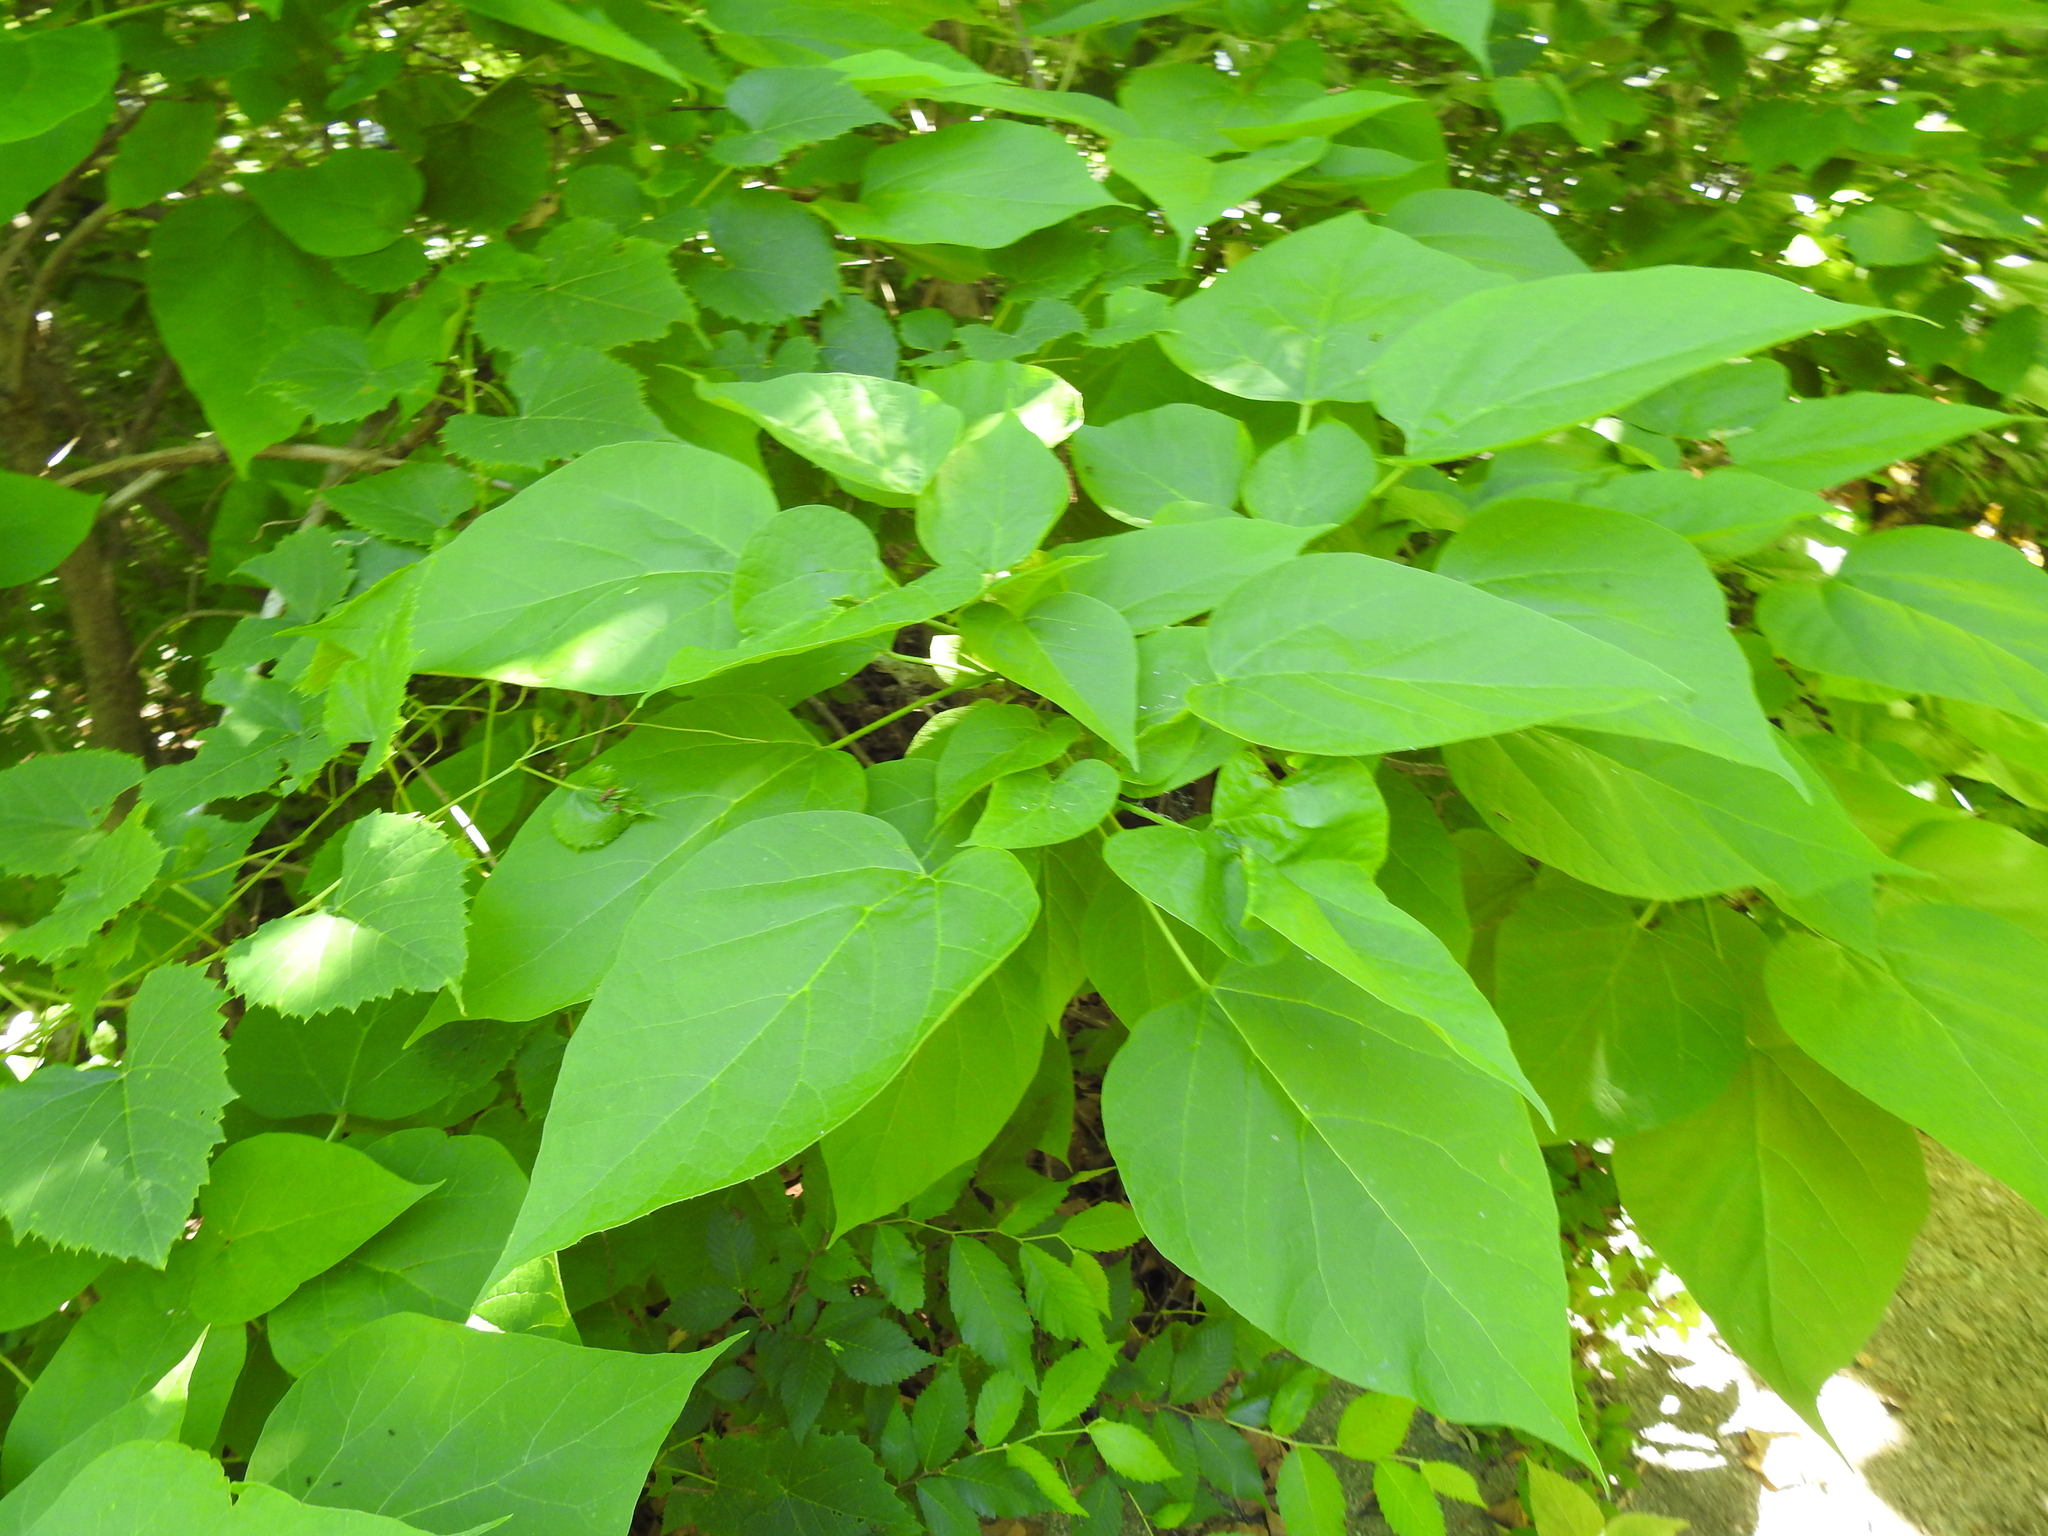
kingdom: Plantae
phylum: Tracheophyta
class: Magnoliopsida
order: Lamiales
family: Bignoniaceae
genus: Catalpa
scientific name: Catalpa speciosa
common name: Northern catalpa
